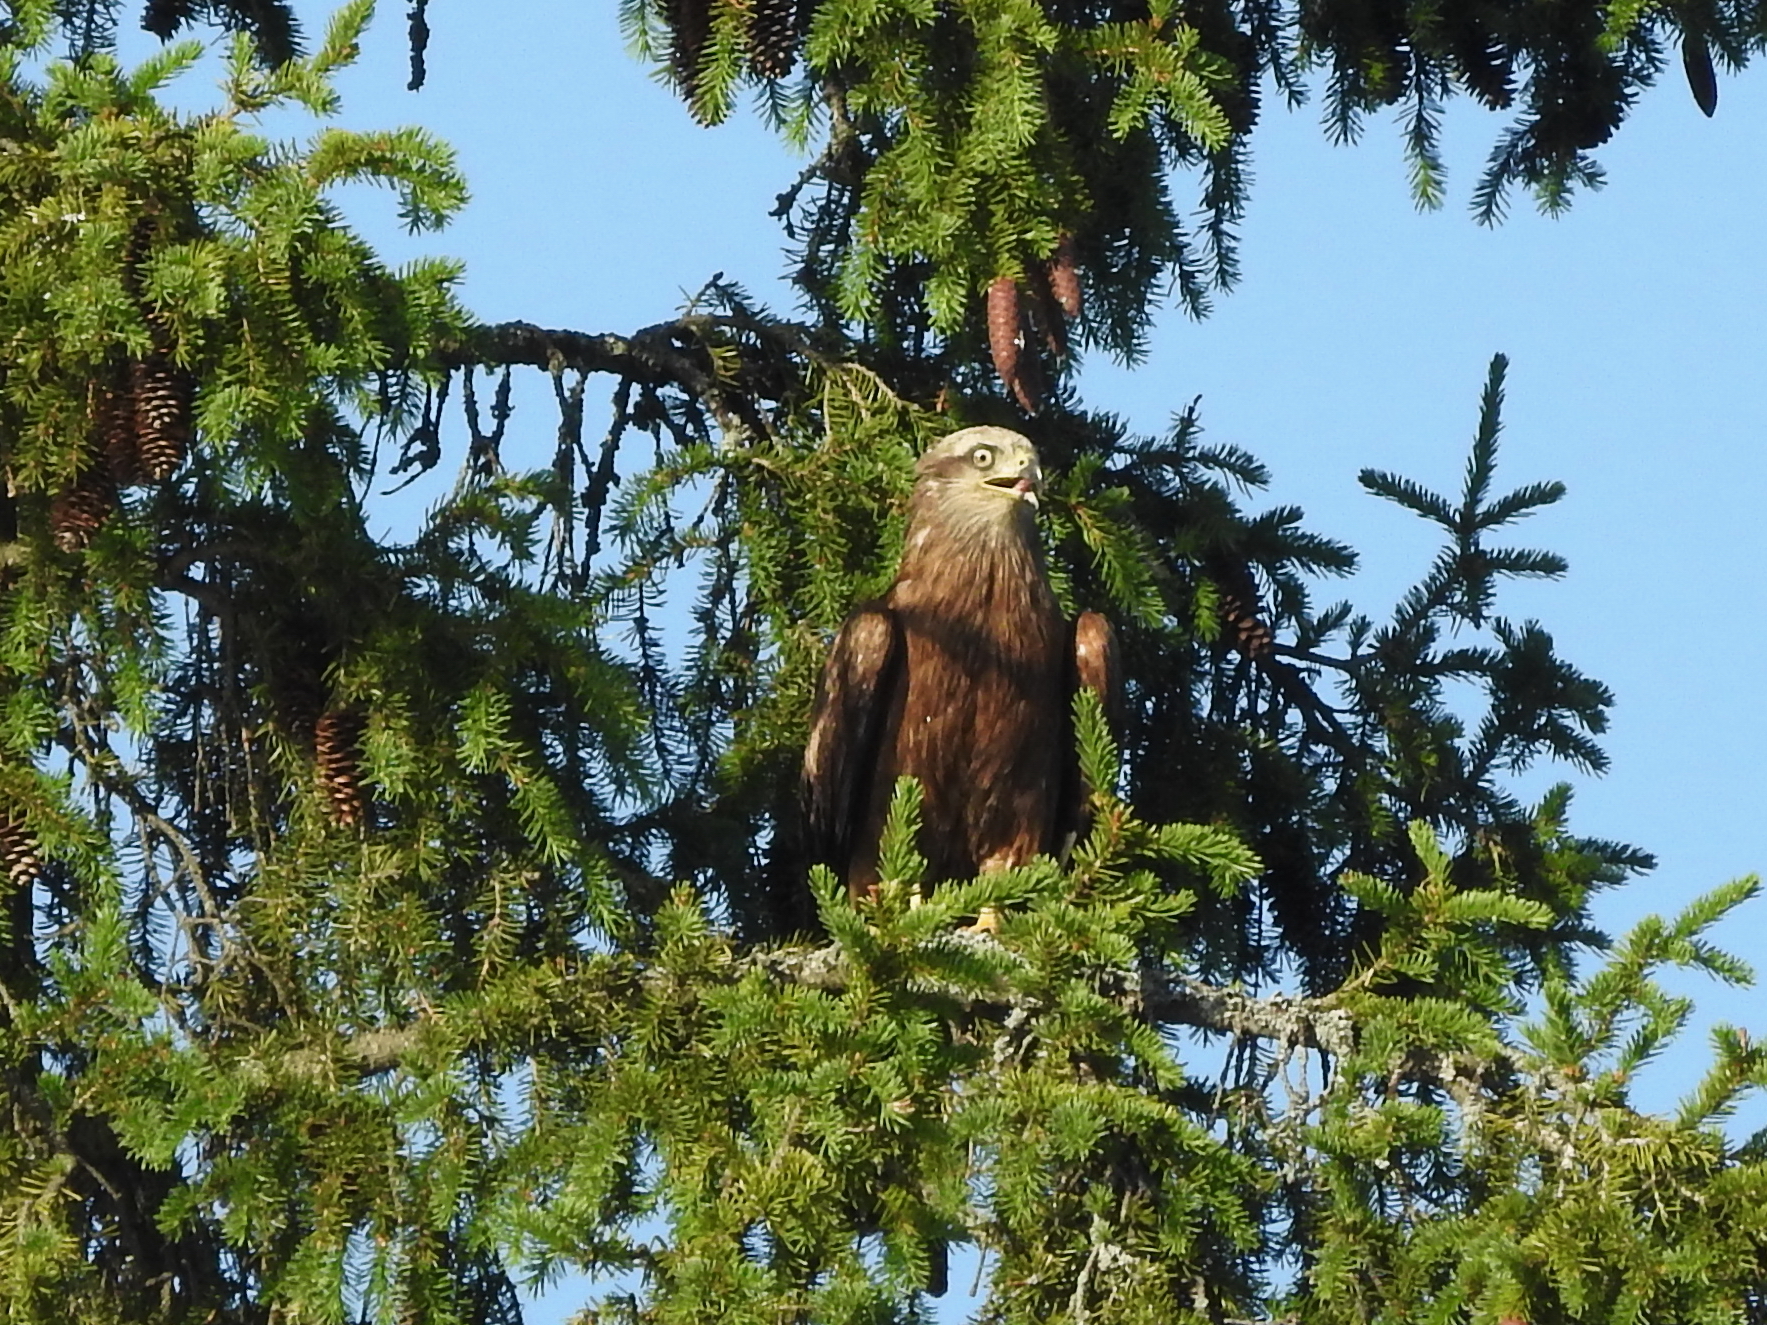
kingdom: Animalia
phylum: Chordata
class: Aves
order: Accipitriformes
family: Accipitridae
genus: Milvus
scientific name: Milvus migrans
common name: Black kite
